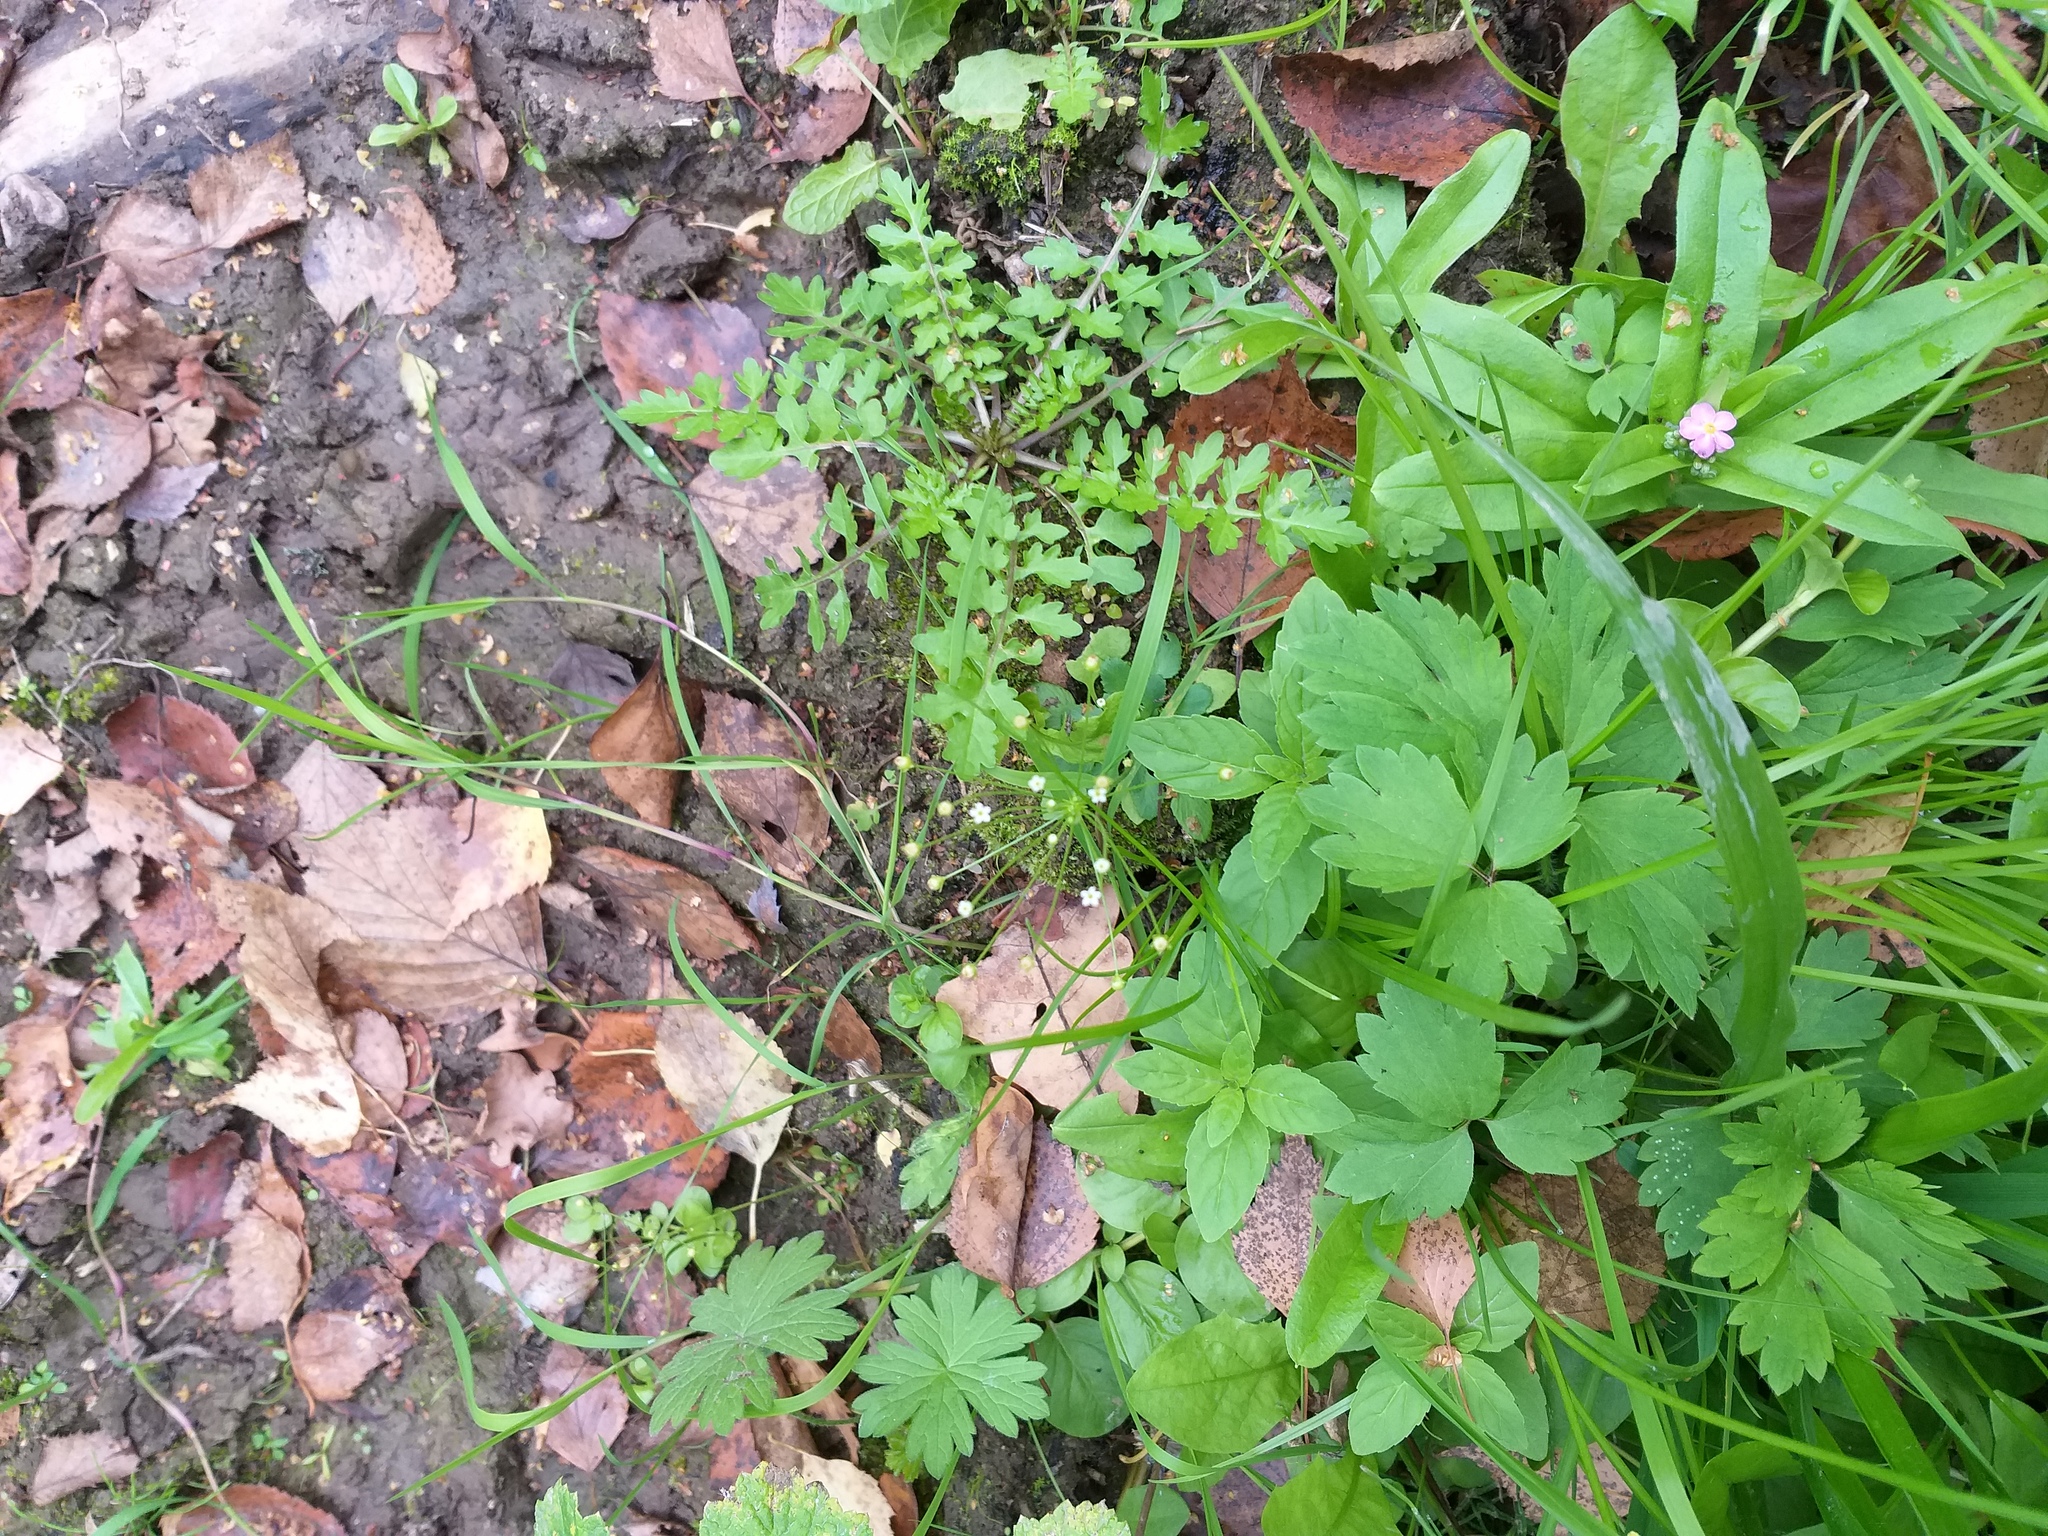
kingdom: Plantae
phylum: Tracheophyta
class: Magnoliopsida
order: Ericales
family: Primulaceae
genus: Androsace
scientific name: Androsace filiformis
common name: Filiform rock jasmine
